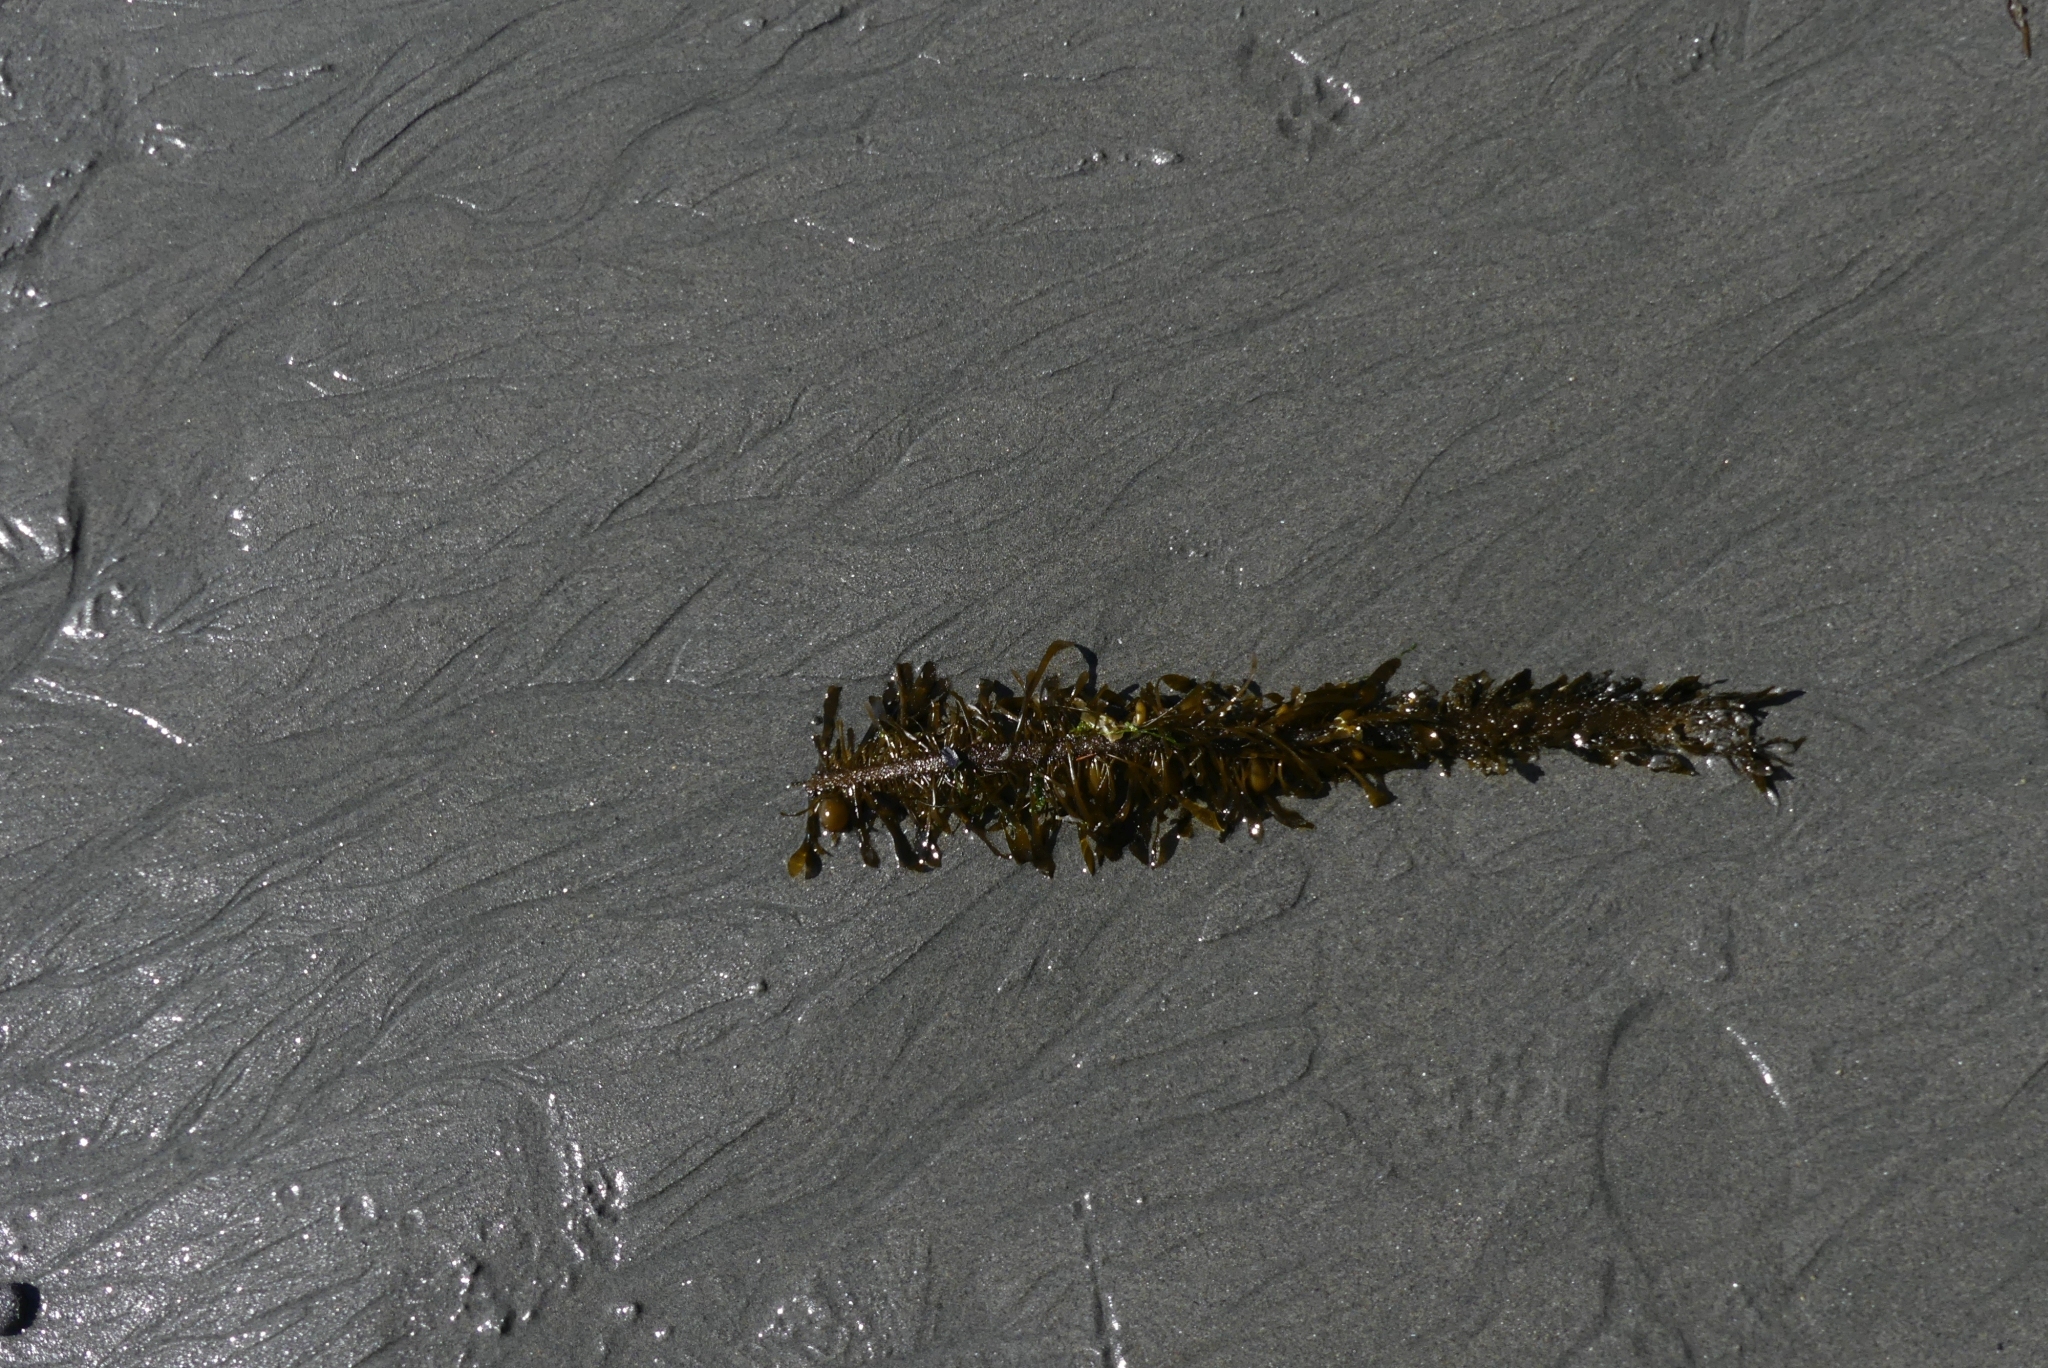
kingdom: Chromista
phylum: Ochrophyta
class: Phaeophyceae
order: Laminariales
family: Lessoniaceae
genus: Egregia
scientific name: Egregia menziesii
